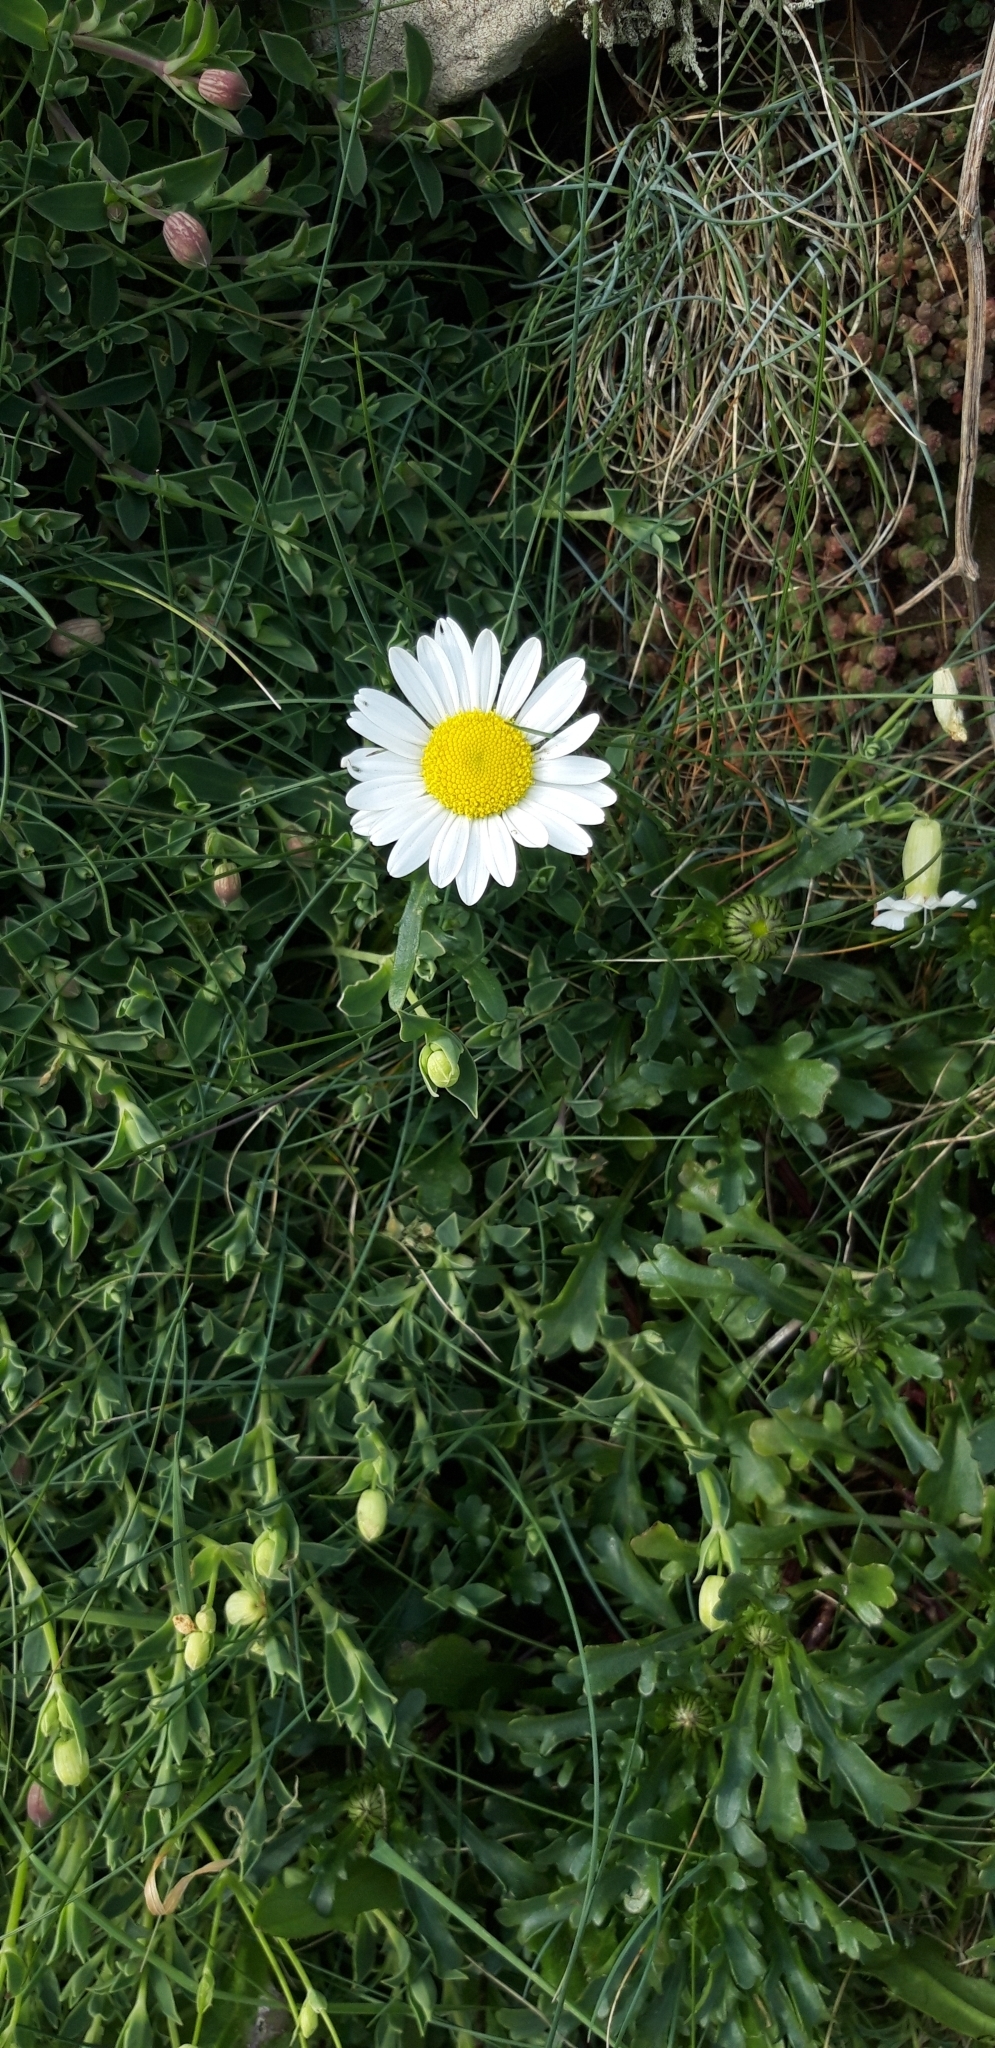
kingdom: Plantae
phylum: Tracheophyta
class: Magnoliopsida
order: Asterales
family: Asteraceae
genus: Leucanthemum
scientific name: Leucanthemum vulgare
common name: Oxeye daisy
